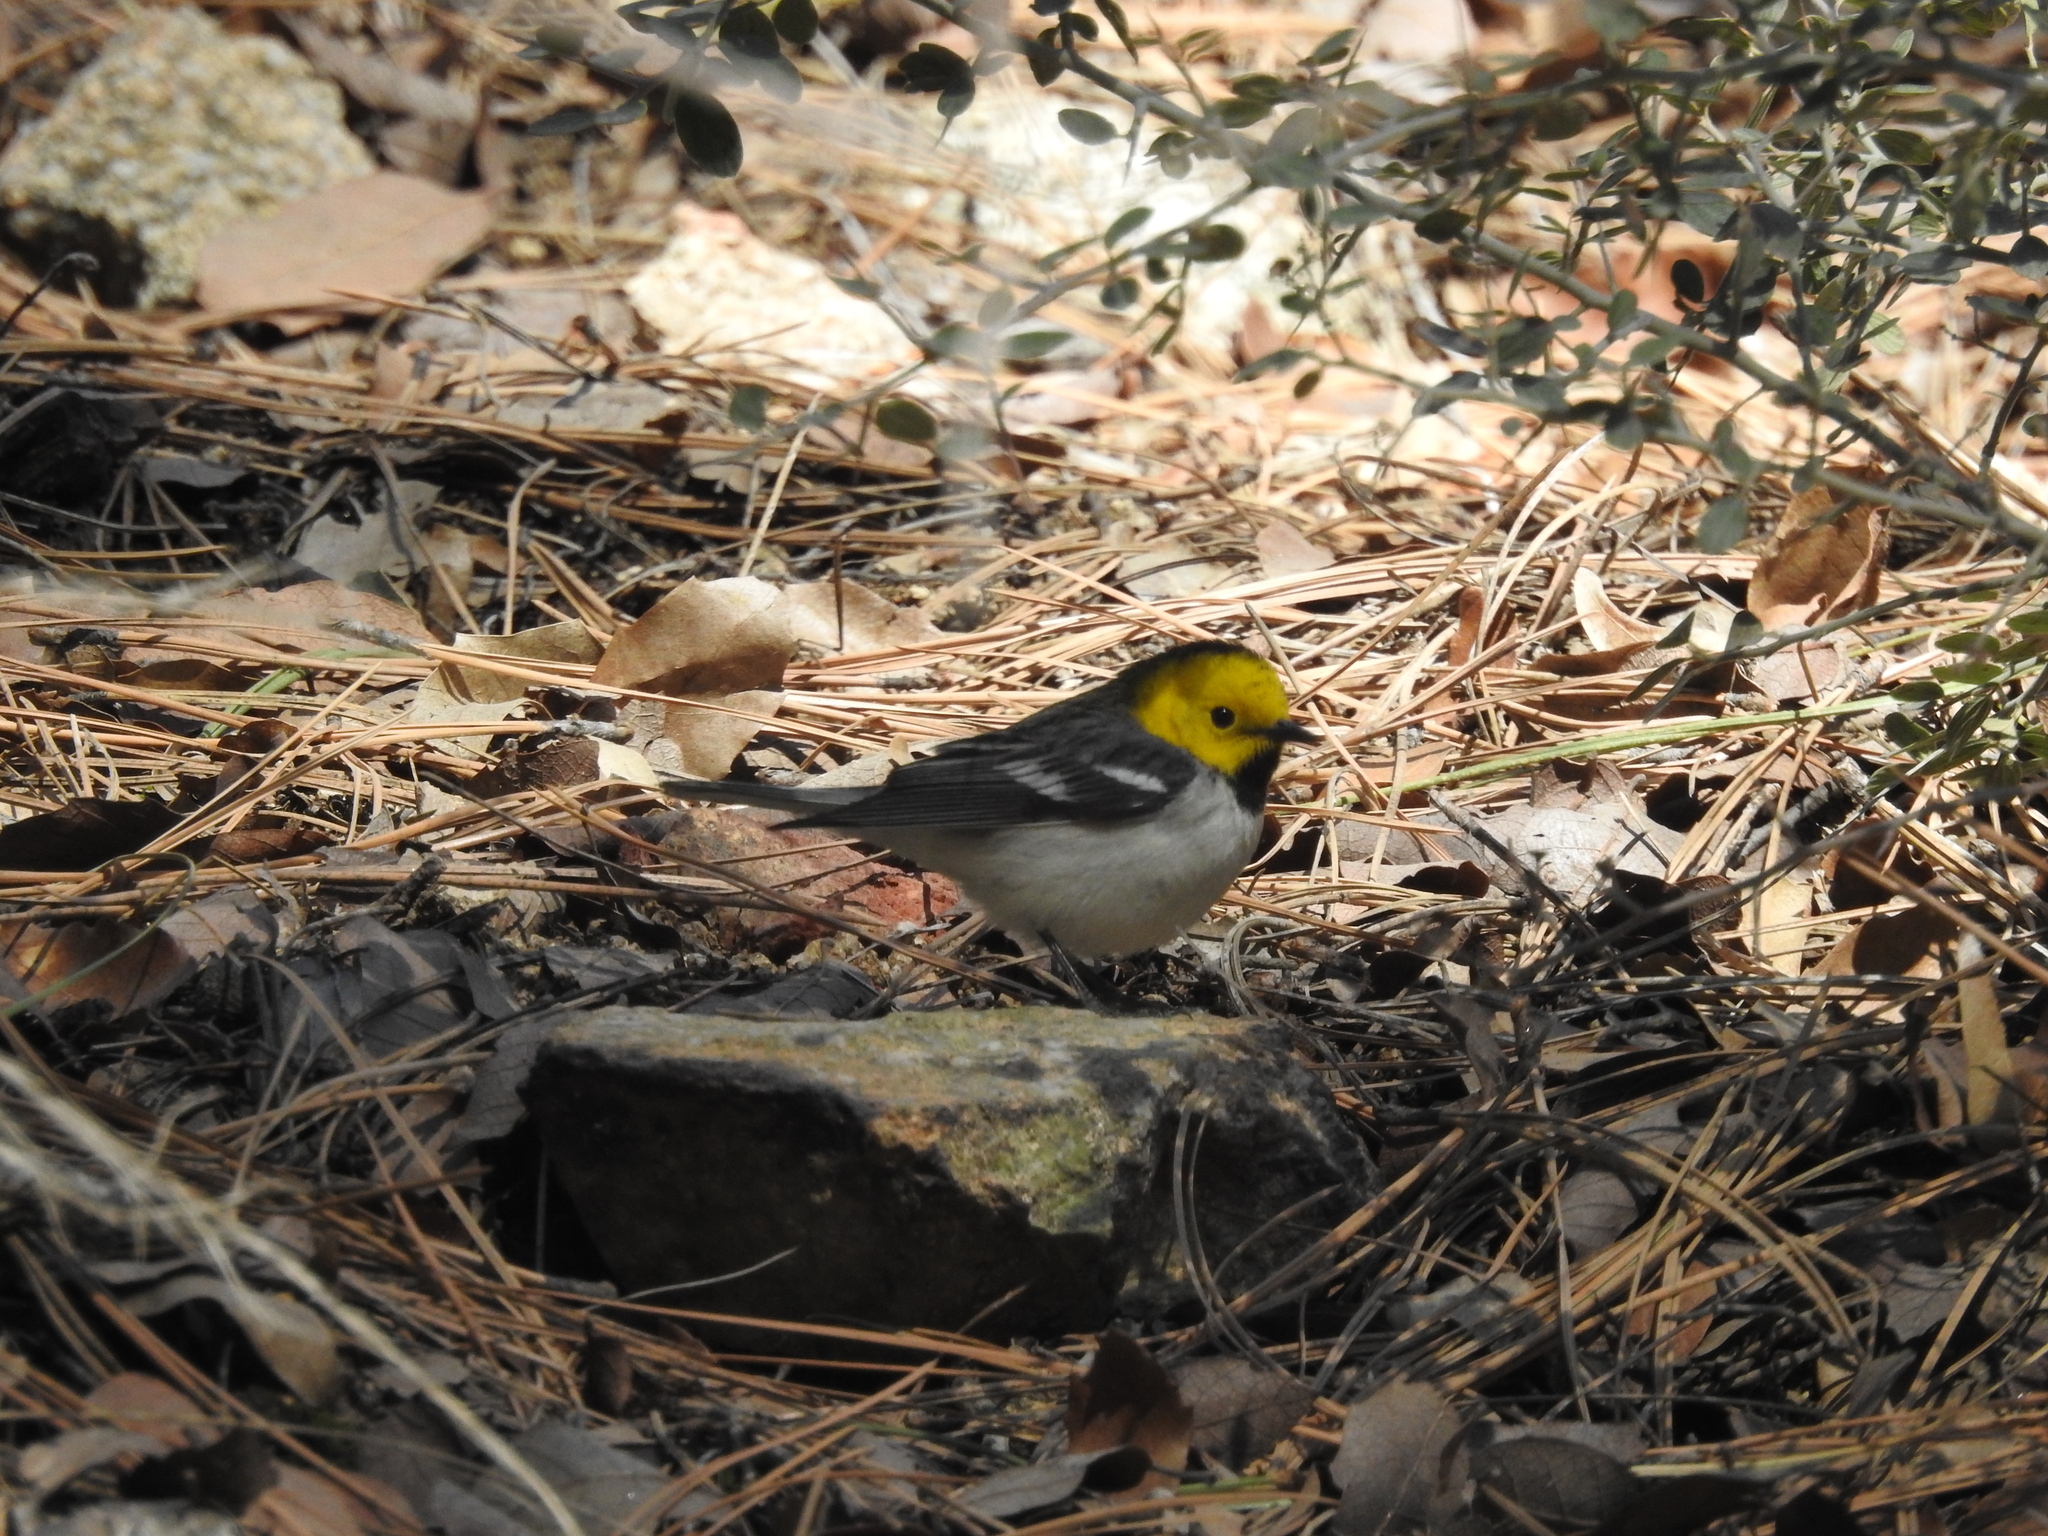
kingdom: Animalia
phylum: Chordata
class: Aves
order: Passeriformes
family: Parulidae
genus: Setophaga
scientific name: Setophaga occidentalis
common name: Hermit warbler
